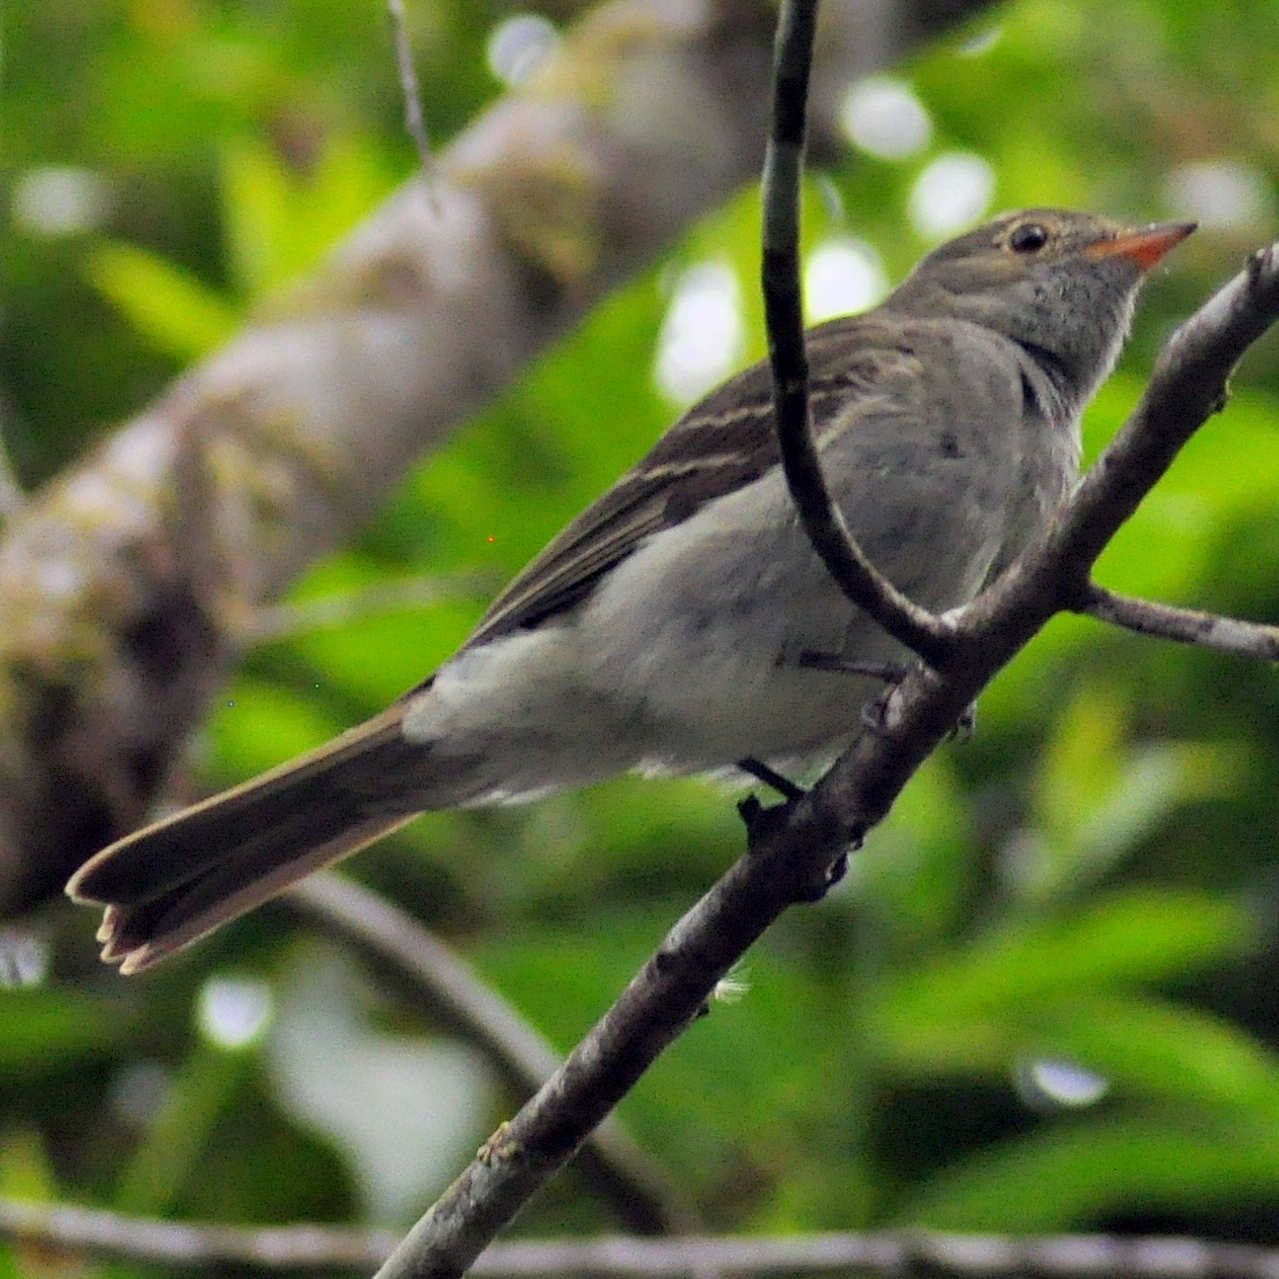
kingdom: Animalia
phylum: Chordata
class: Aves
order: Passeriformes
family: Tyrannidae
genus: Elaenia
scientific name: Elaenia mesoleuca
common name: Olivaceous elaenia
